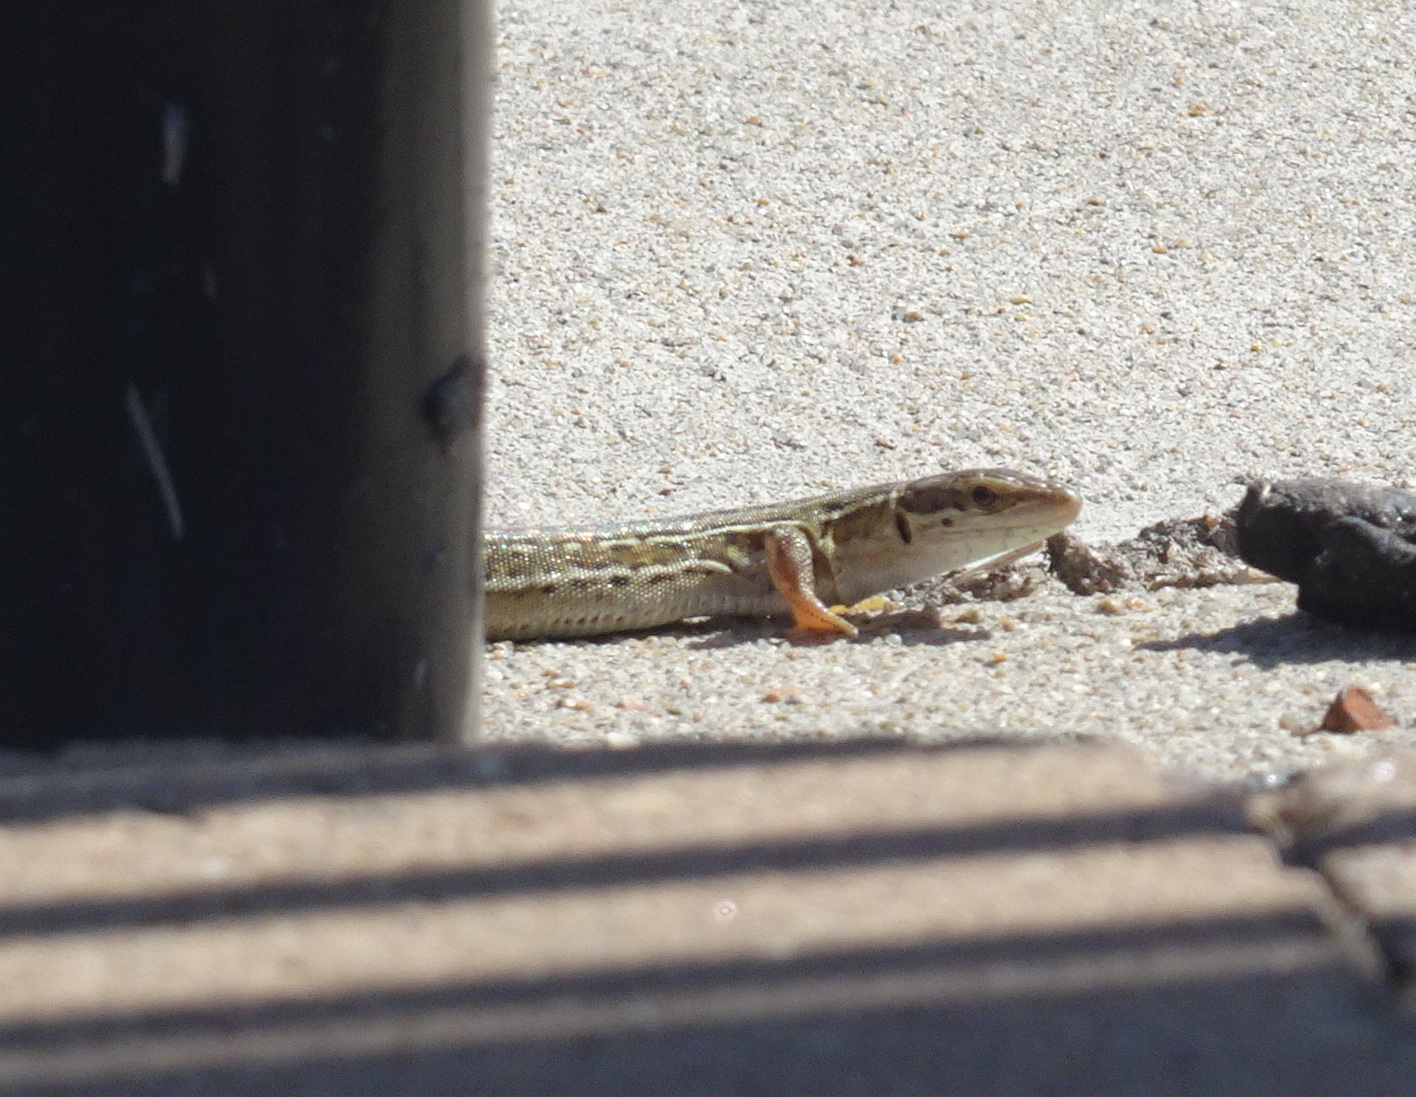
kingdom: Animalia
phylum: Chordata
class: Squamata
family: Lacertidae
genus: Podarcis
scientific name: Podarcis siculus
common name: Italian wall lizard
